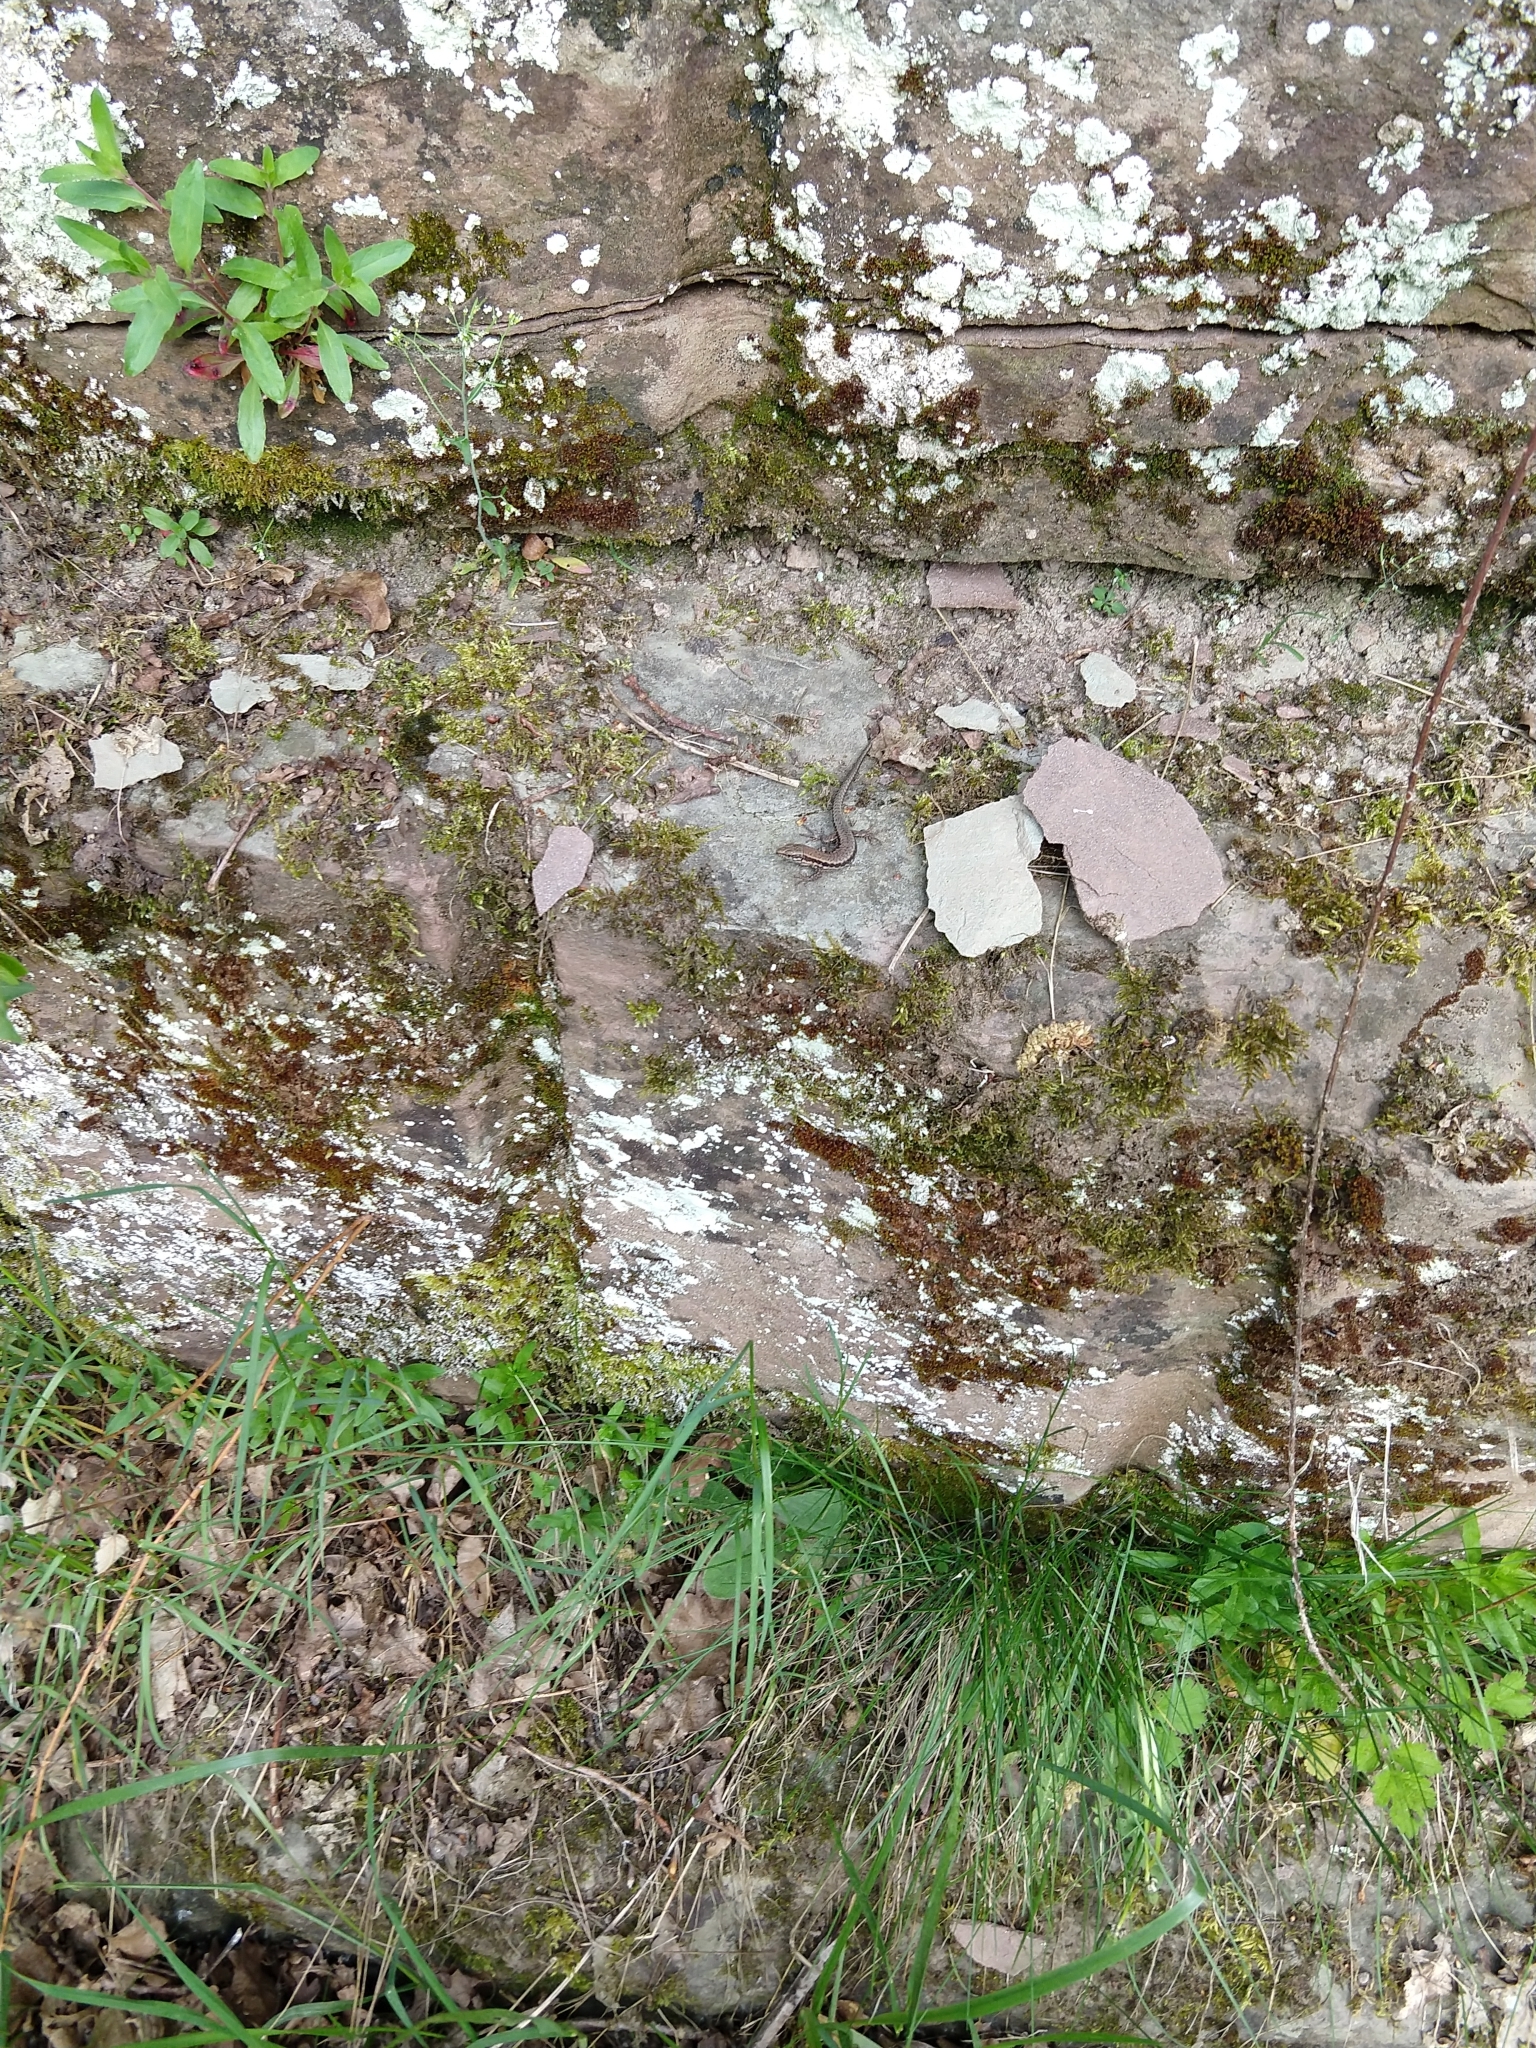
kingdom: Animalia
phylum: Chordata
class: Squamata
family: Lacertidae
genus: Podarcis
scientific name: Podarcis muralis
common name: Common wall lizard
